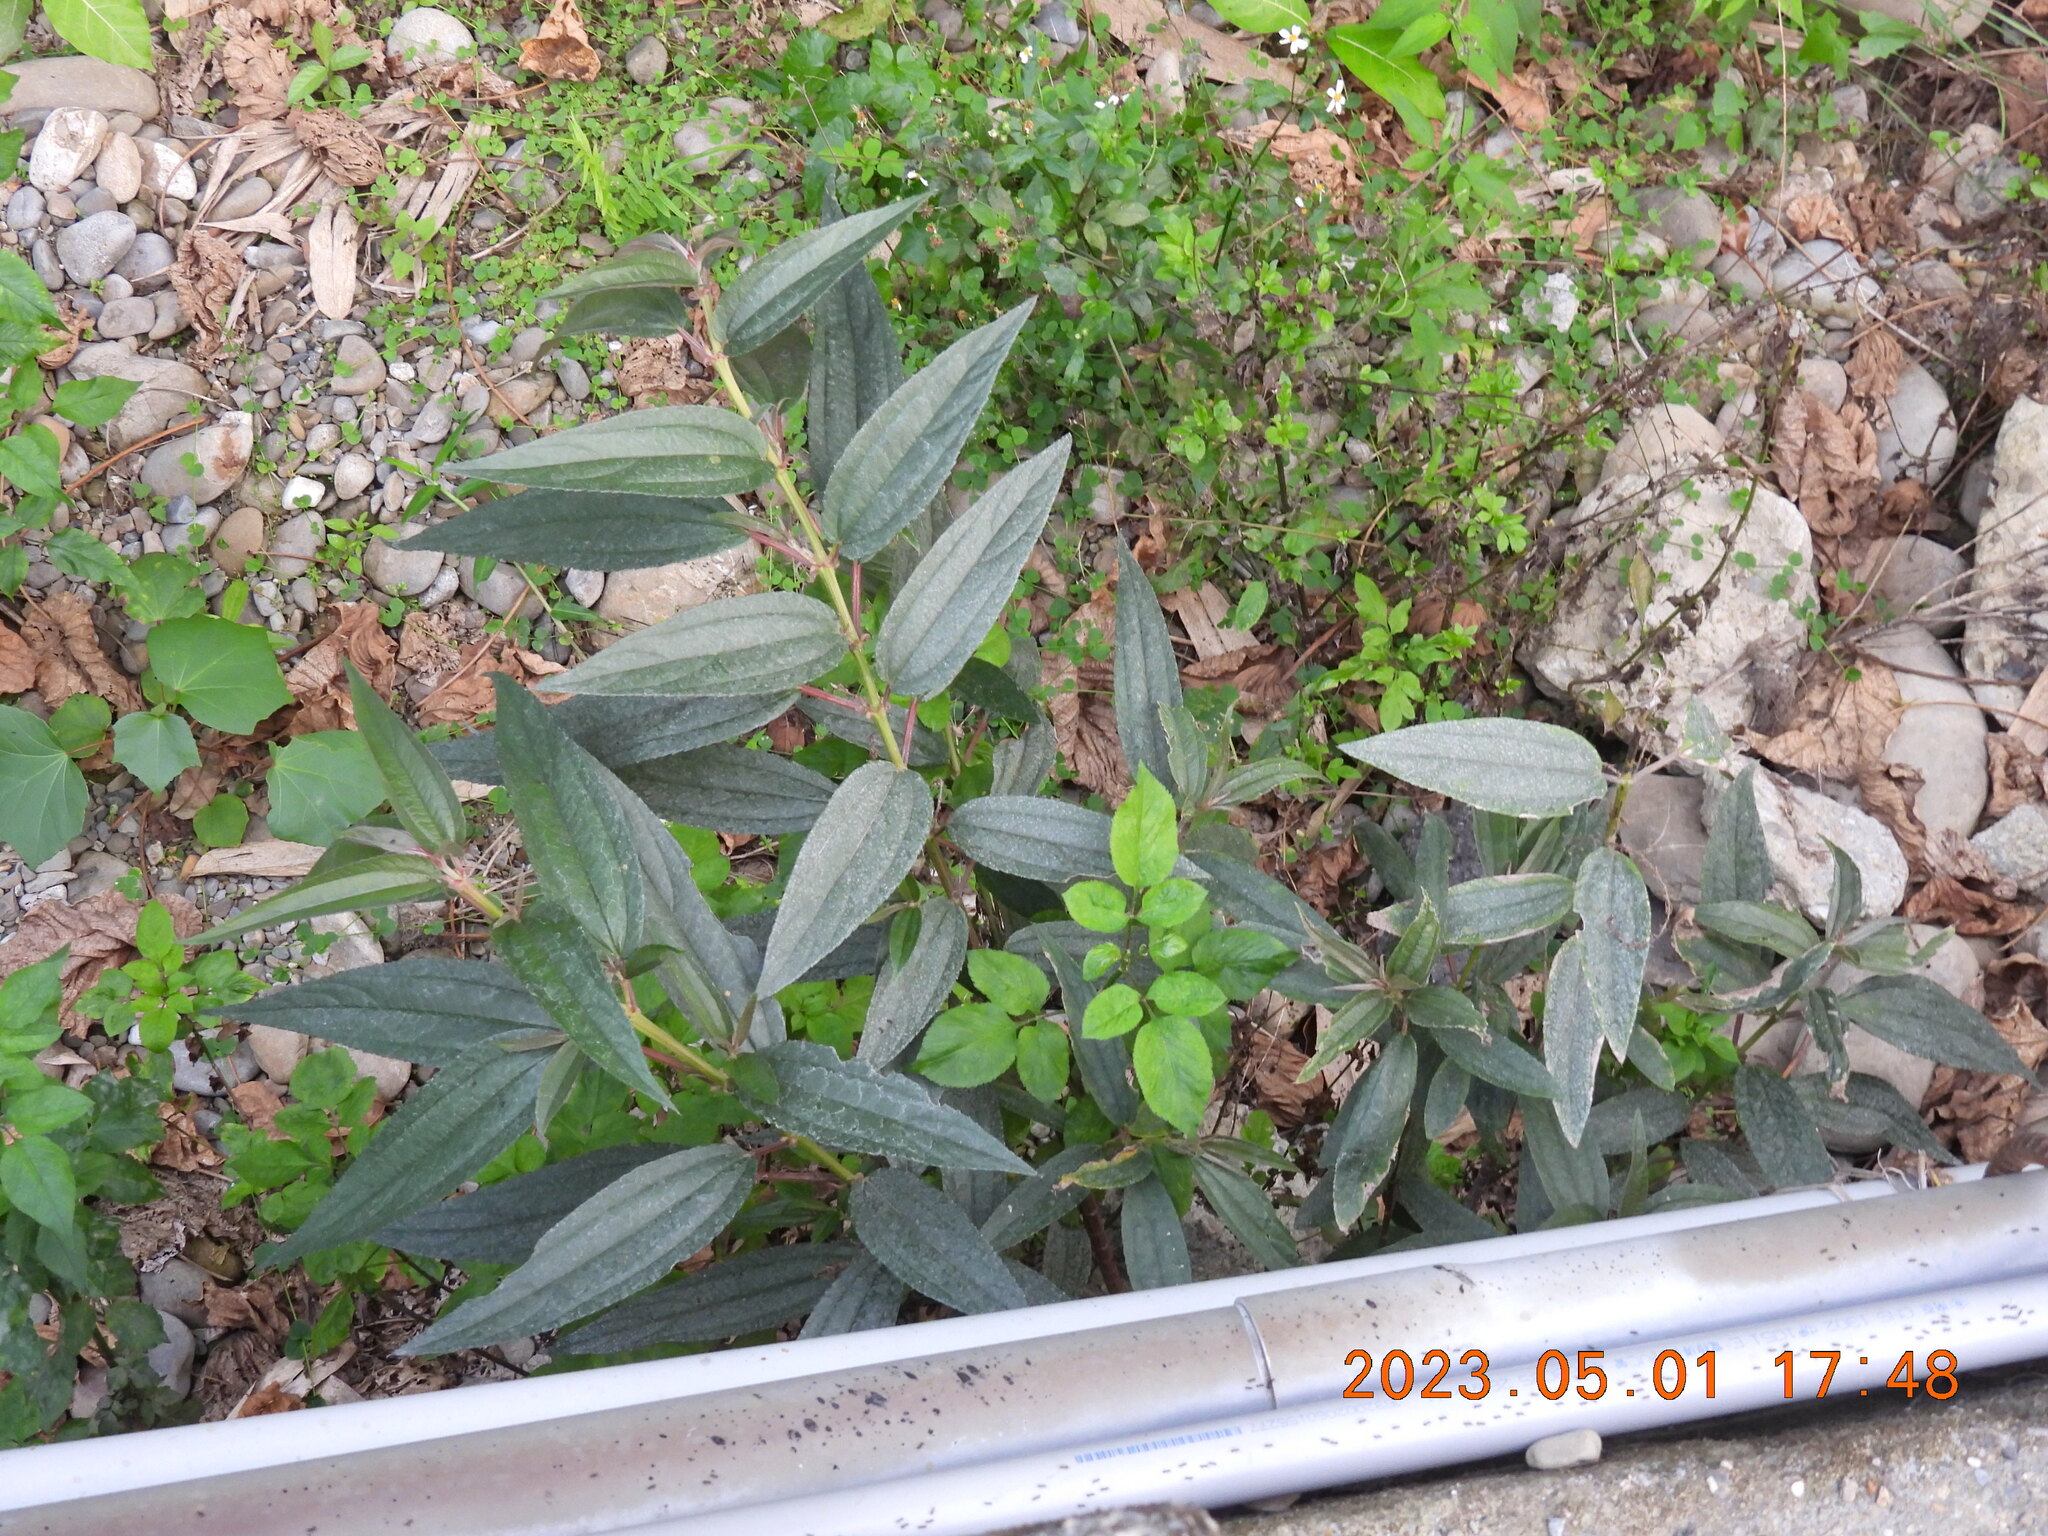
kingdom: Plantae
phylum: Tracheophyta
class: Magnoliopsida
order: Rosales
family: Urticaceae
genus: Boehmeria
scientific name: Boehmeria densiflora
